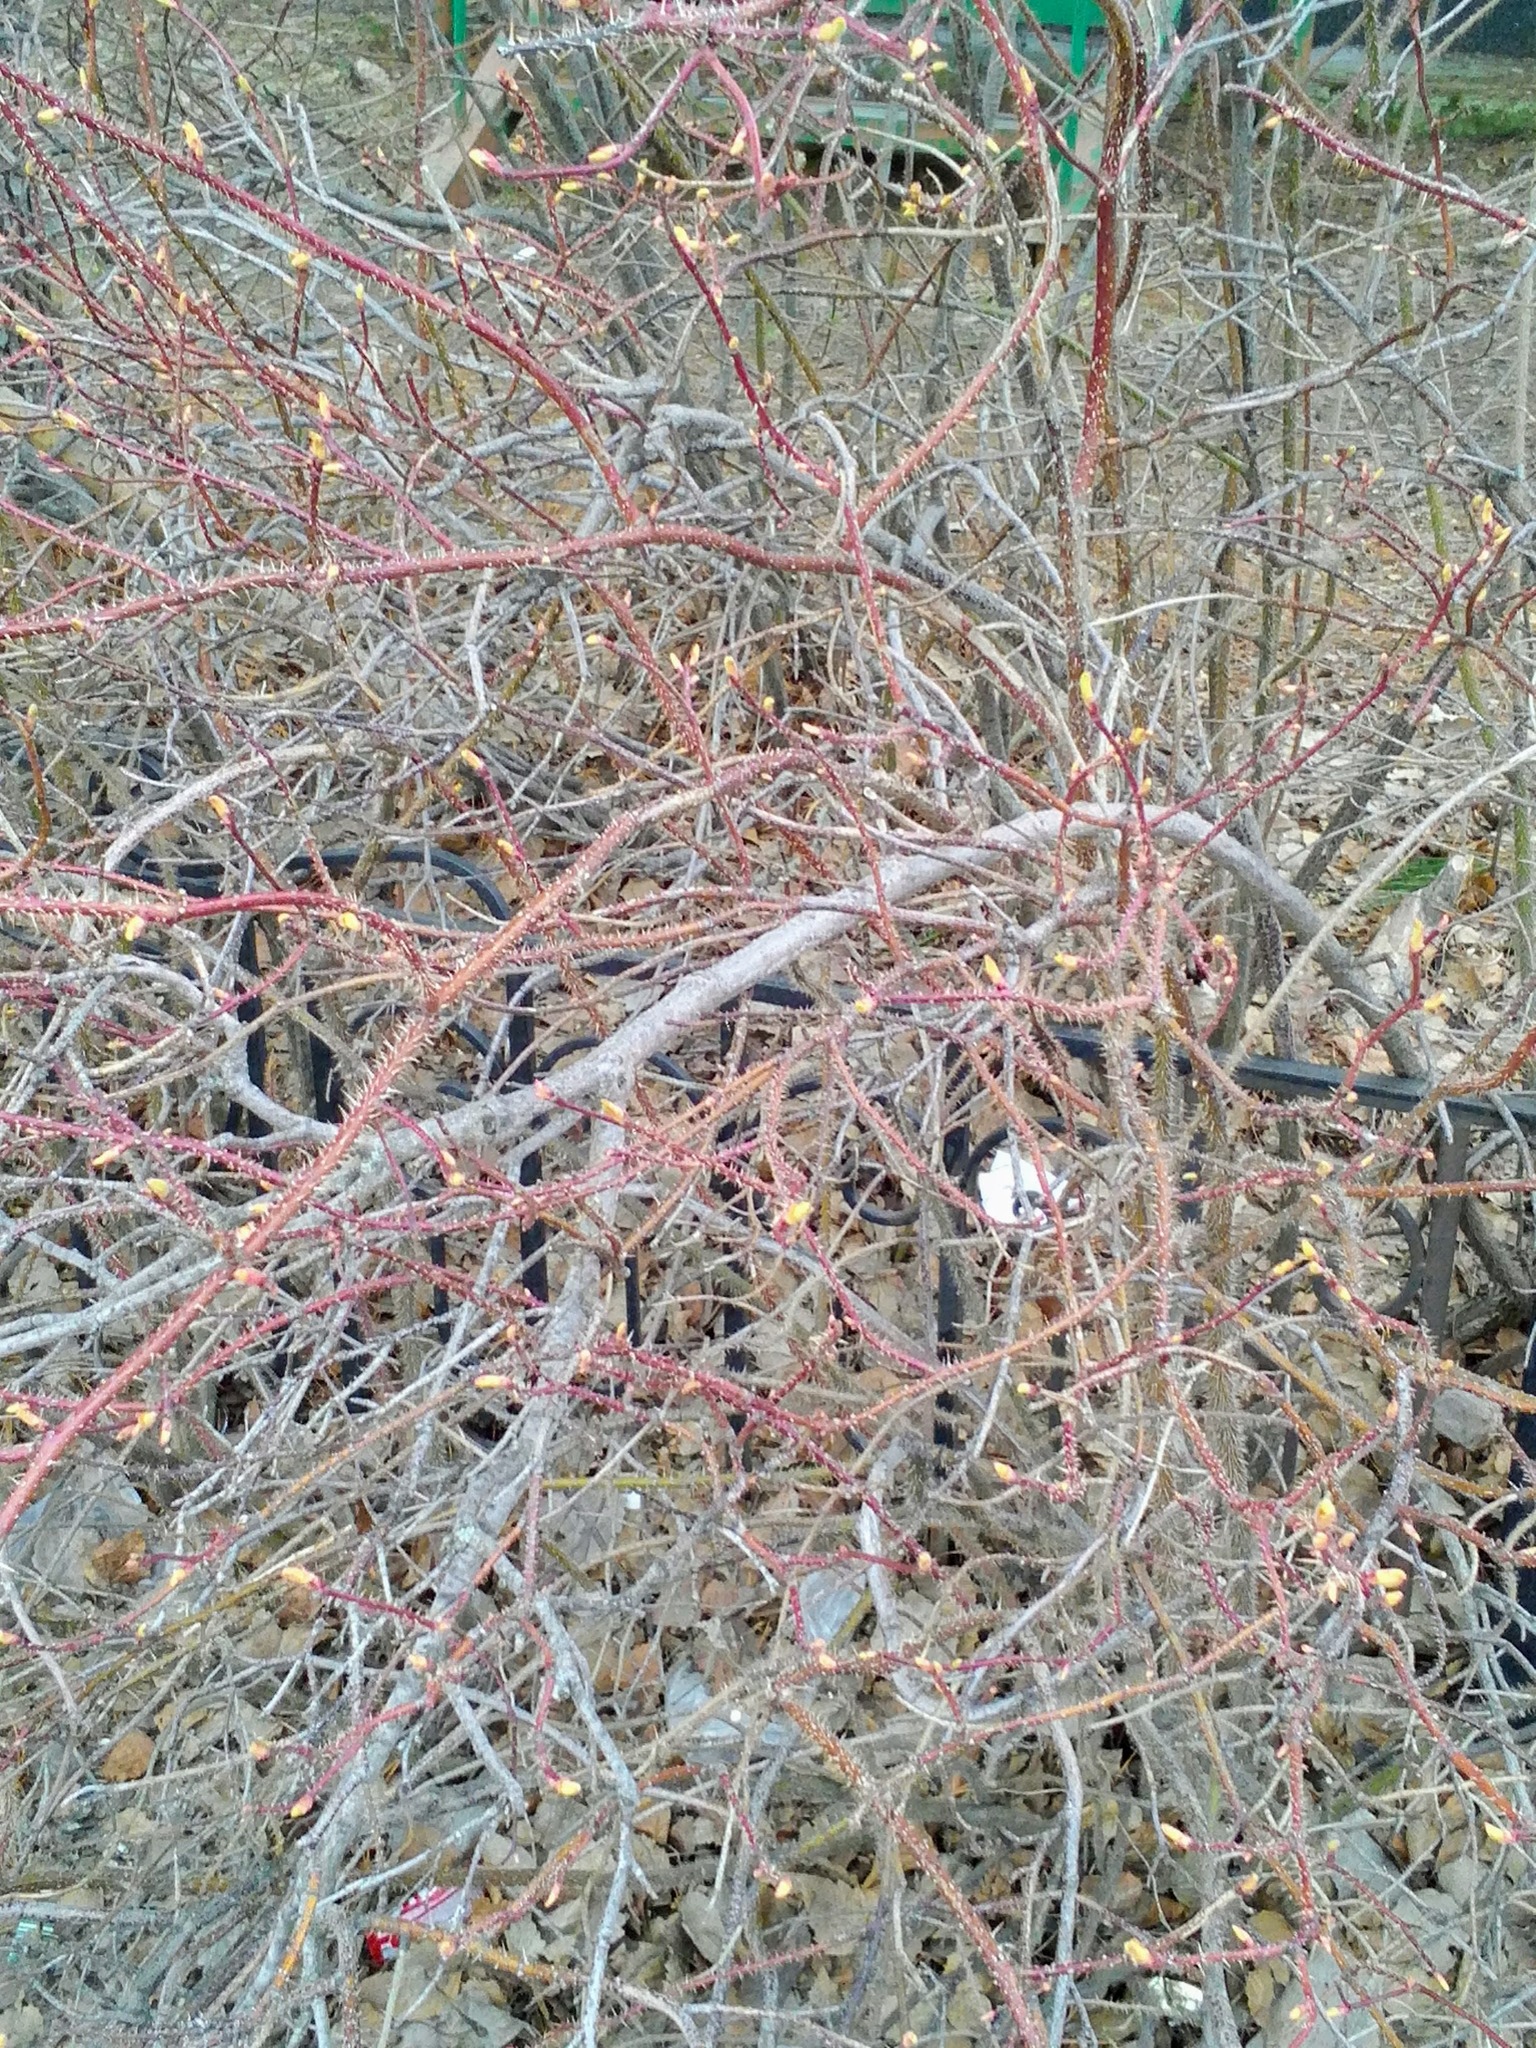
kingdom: Plantae
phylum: Tracheophyta
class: Magnoliopsida
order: Rosales
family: Rosaceae
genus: Rosa
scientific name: Rosa acicularis
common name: Prickly rose
